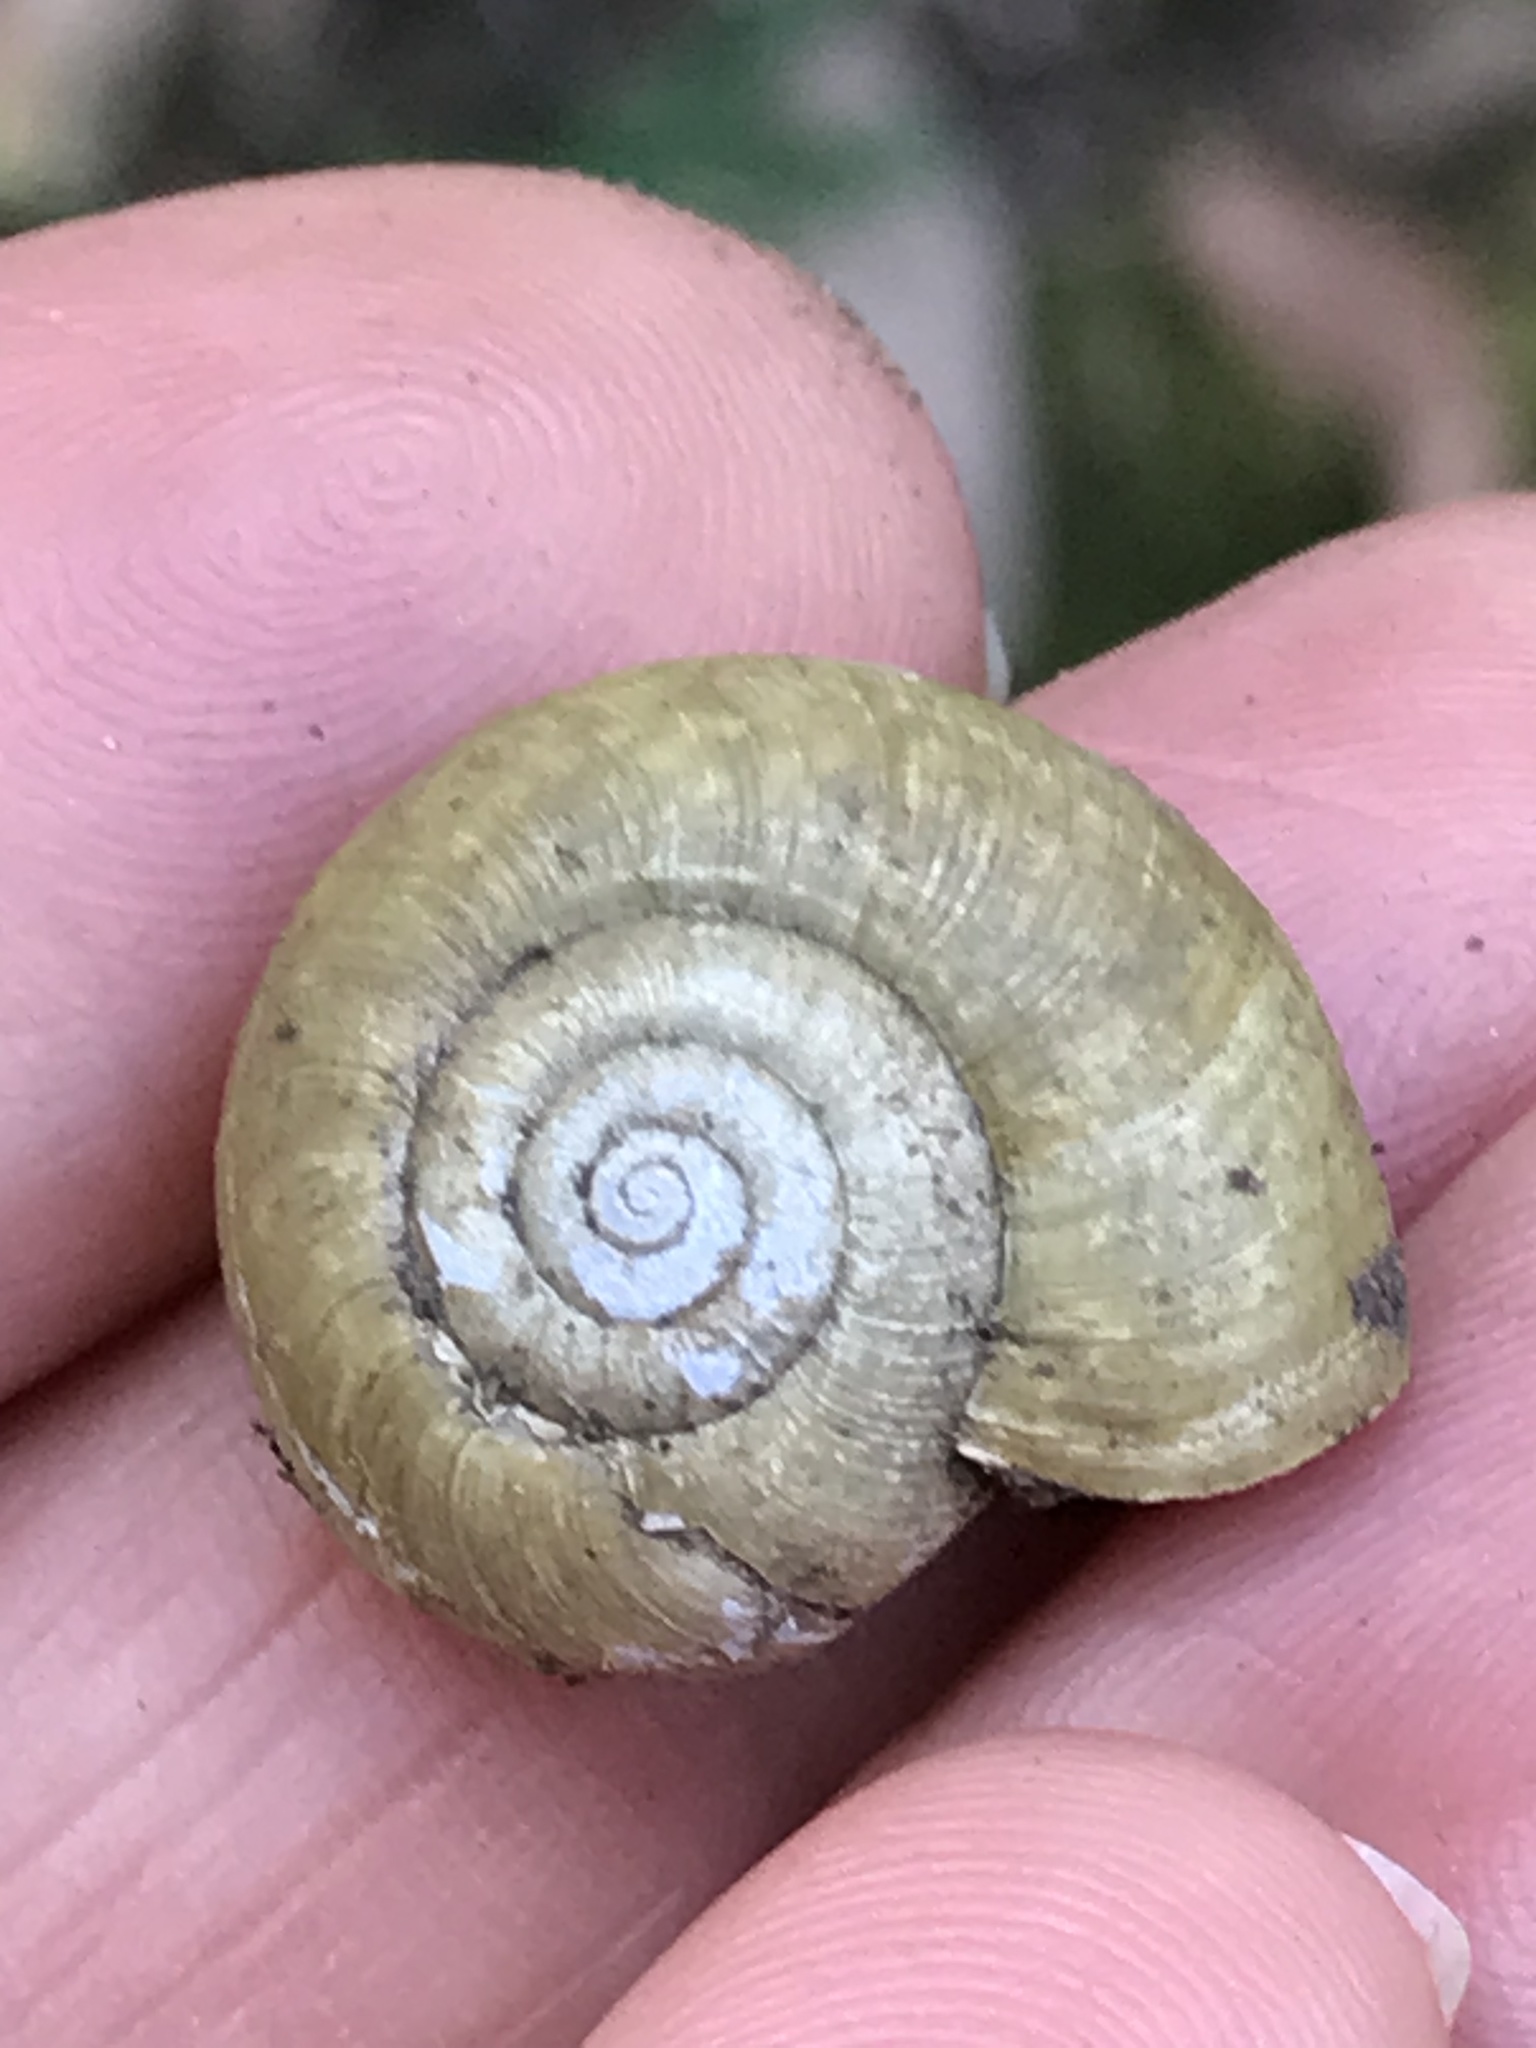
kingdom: Animalia
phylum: Mollusca
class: Gastropoda
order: Stylommatophora
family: Haplotrematidae
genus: Haplotrema
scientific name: Haplotrema minimum
